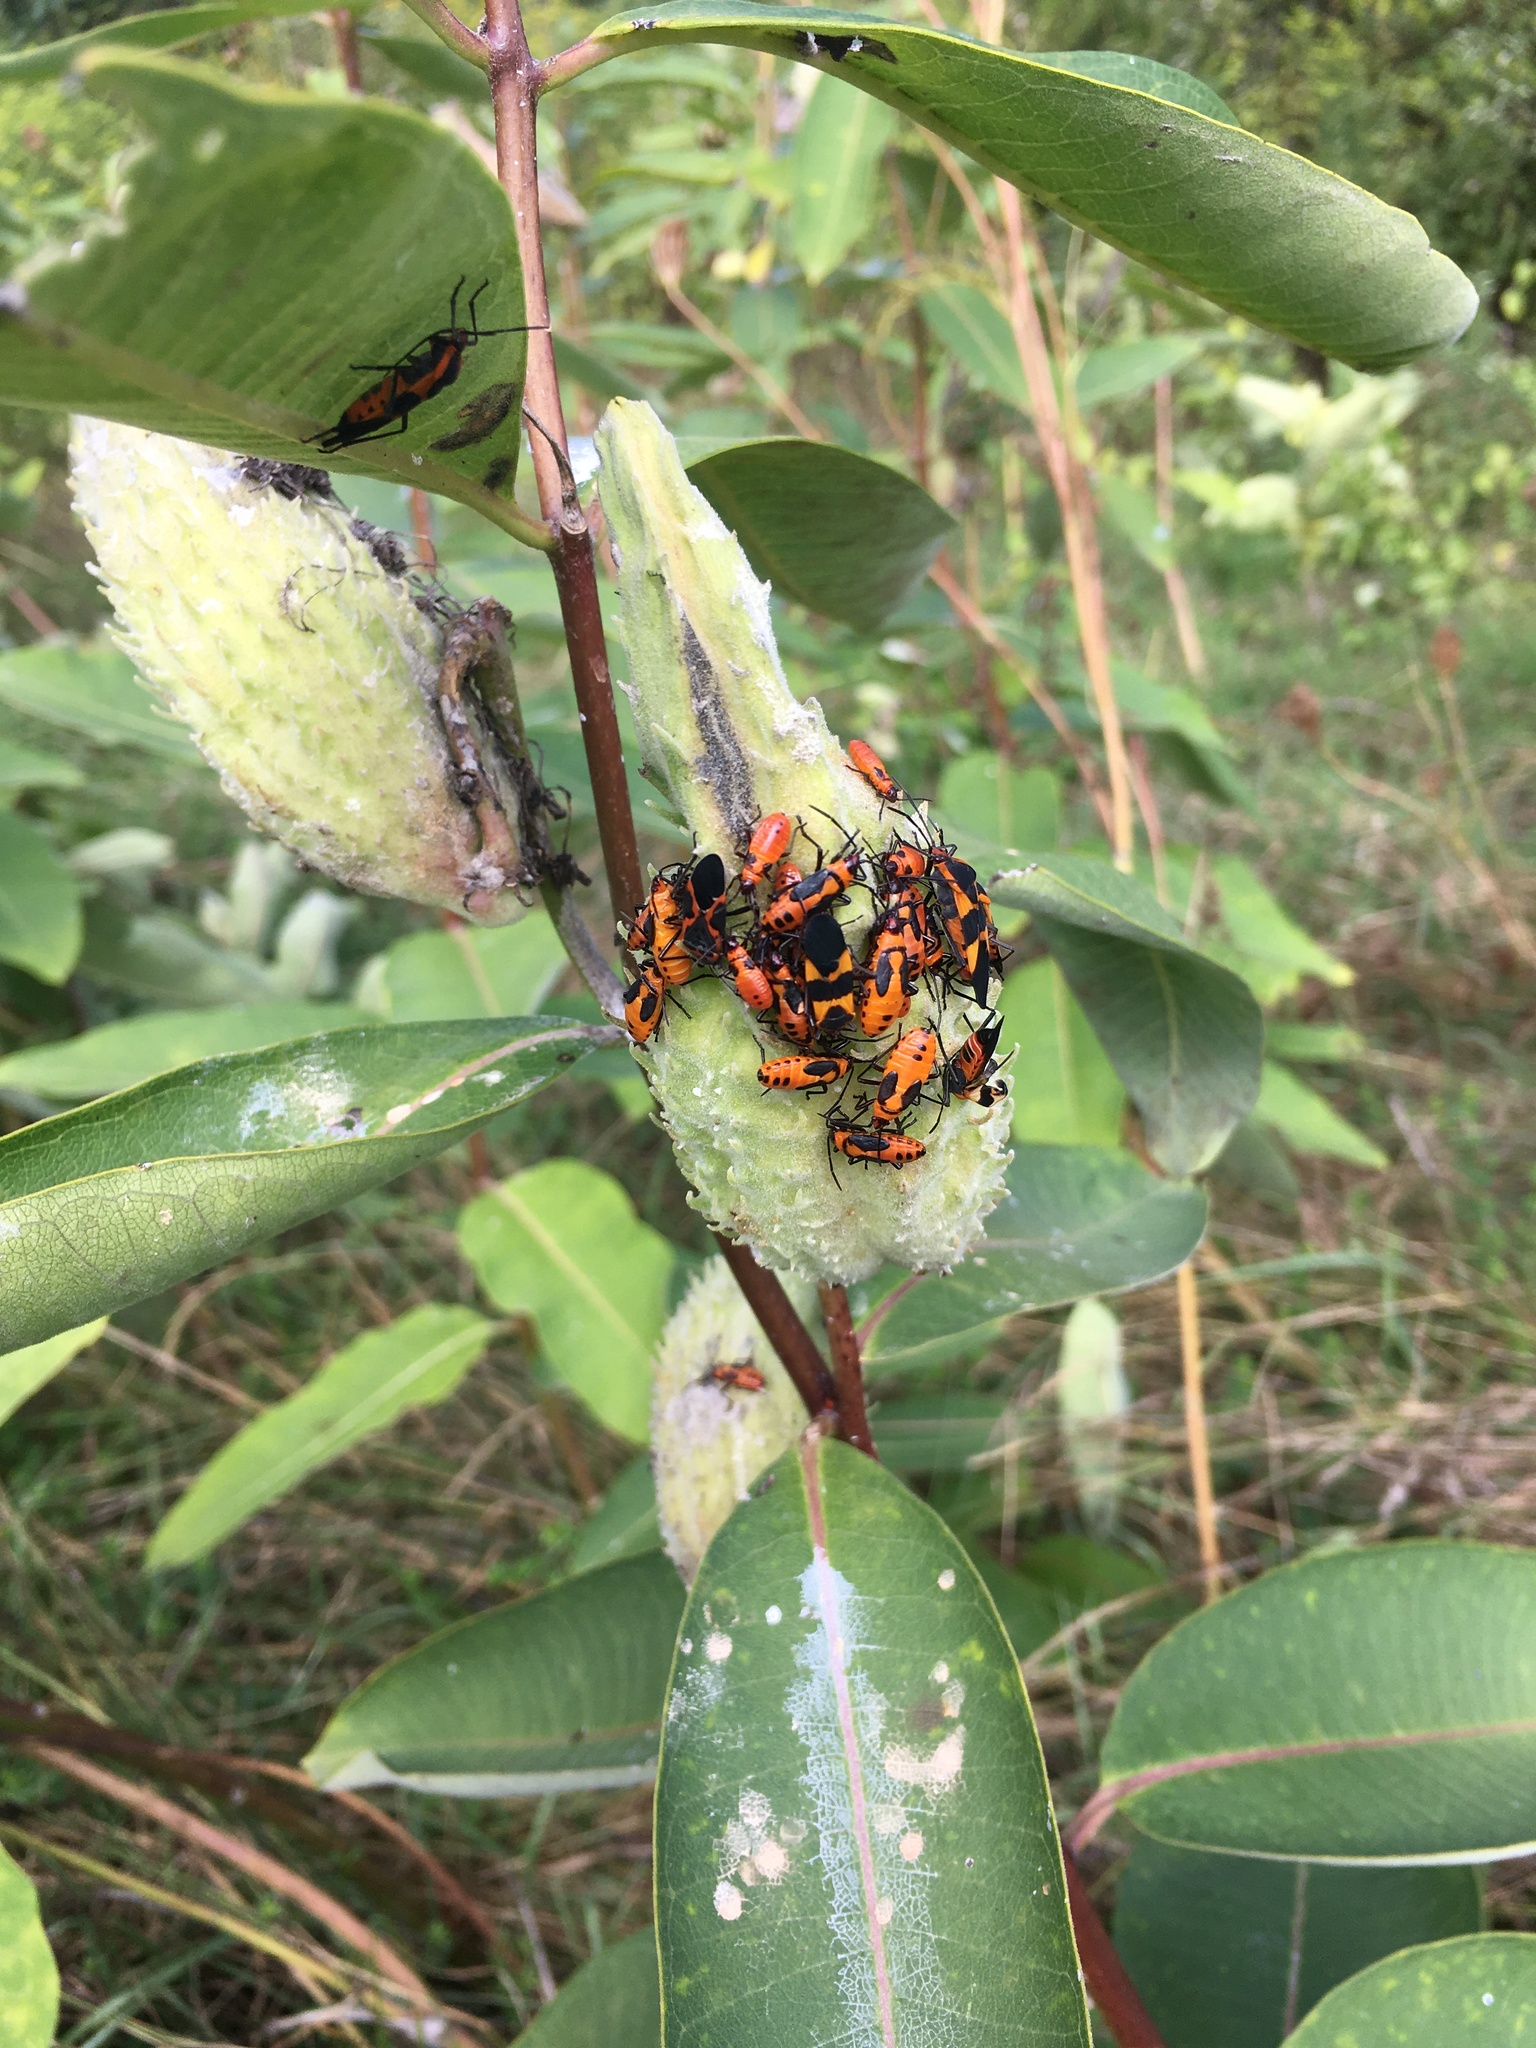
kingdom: Animalia
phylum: Arthropoda
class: Insecta
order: Hemiptera
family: Lygaeidae
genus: Oncopeltus
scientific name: Oncopeltus fasciatus
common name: Large milkweed bug
